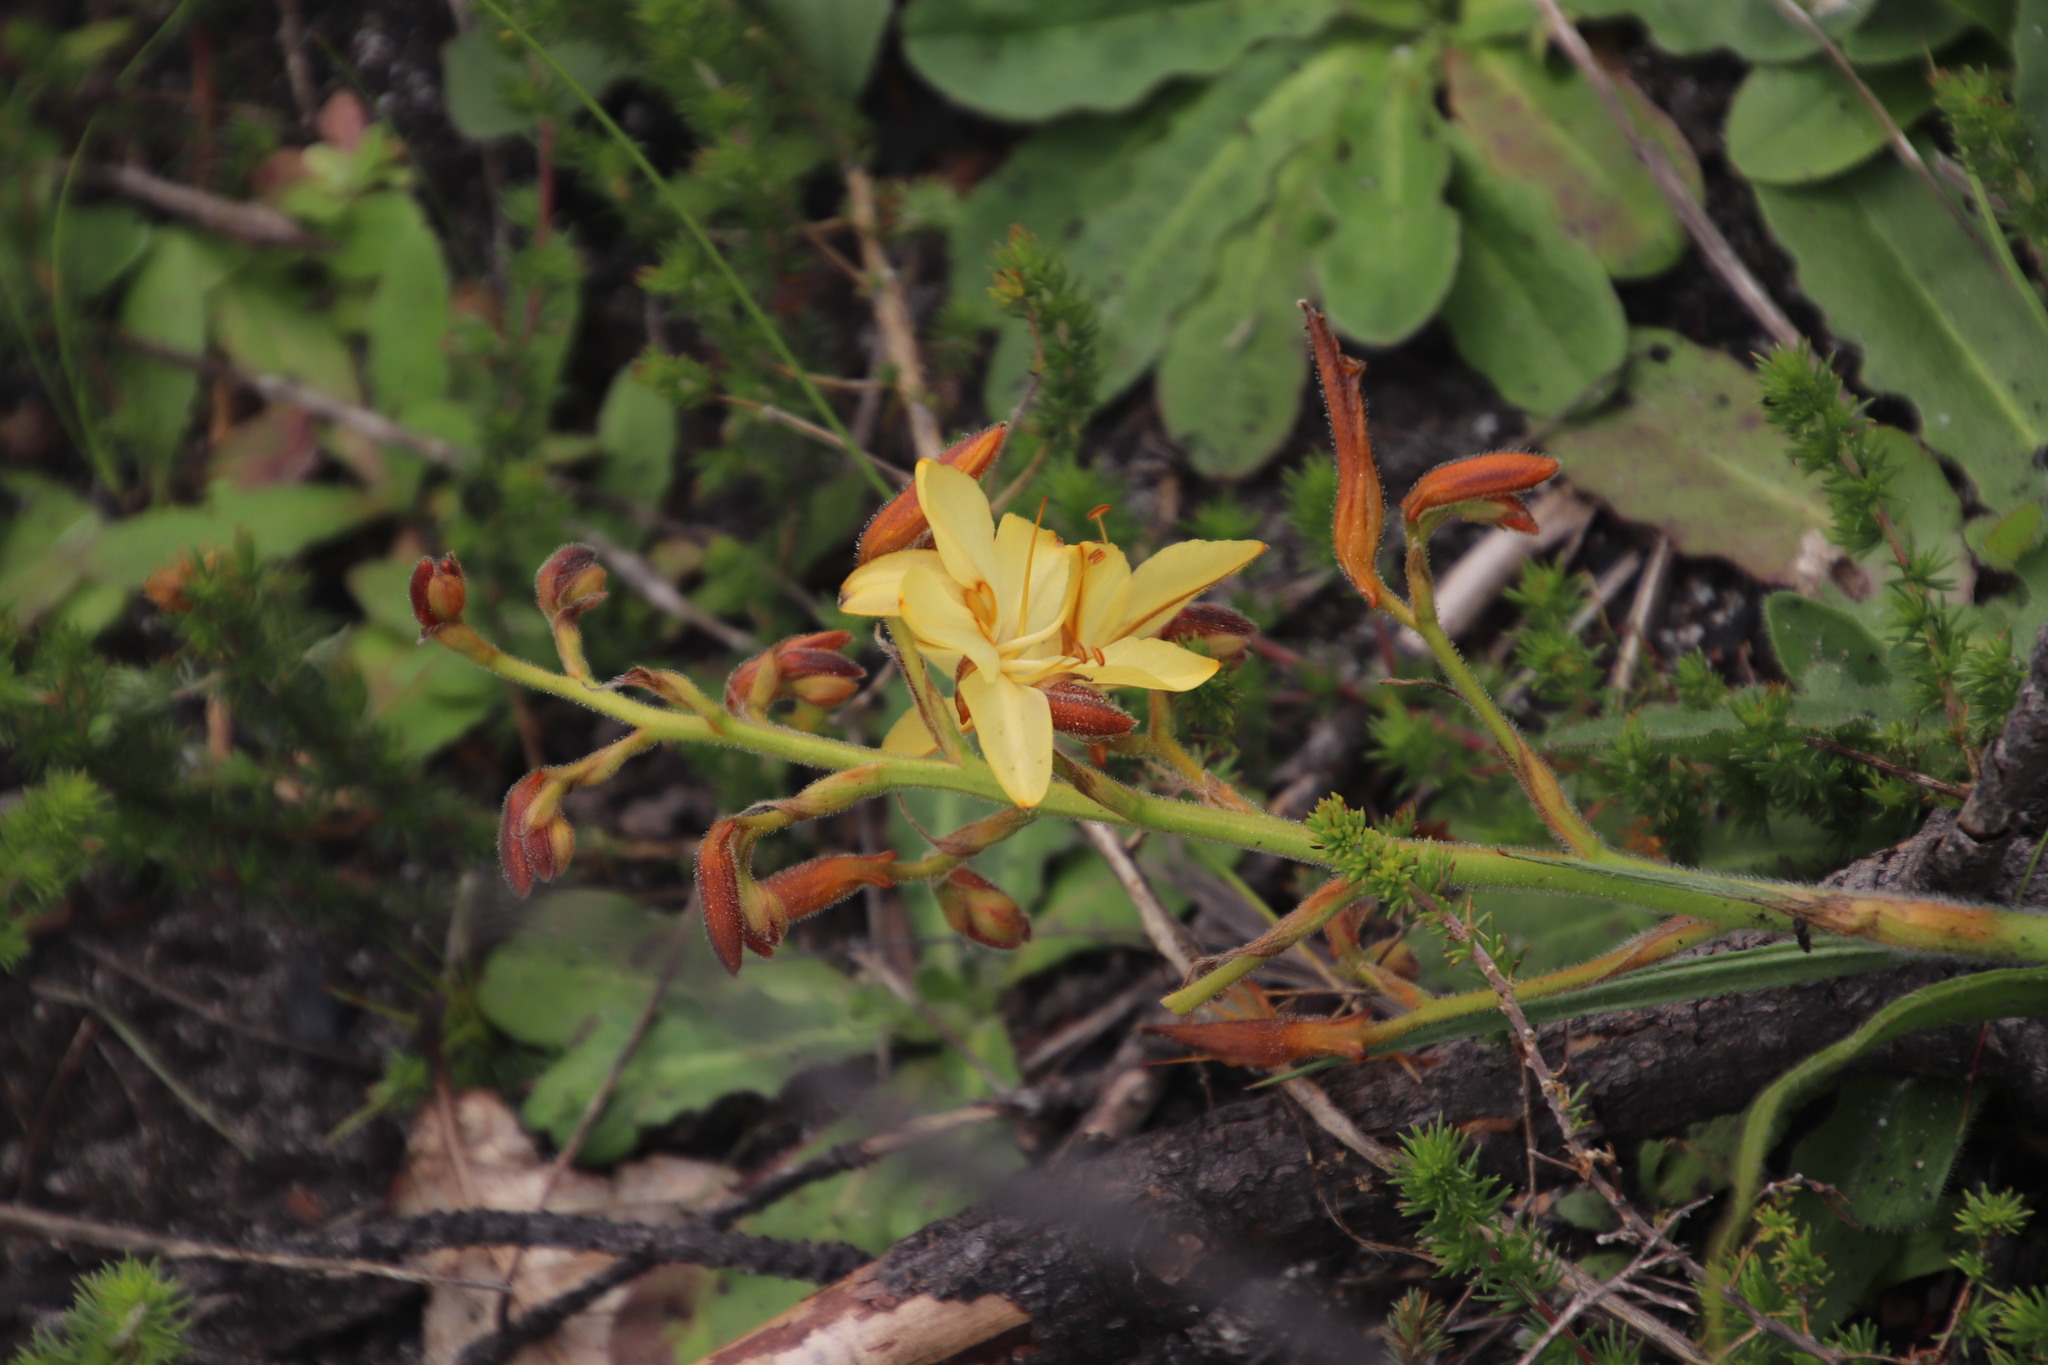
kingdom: Plantae
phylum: Tracheophyta
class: Liliopsida
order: Commelinales
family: Haemodoraceae
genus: Wachendorfia
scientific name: Wachendorfia paniculata
